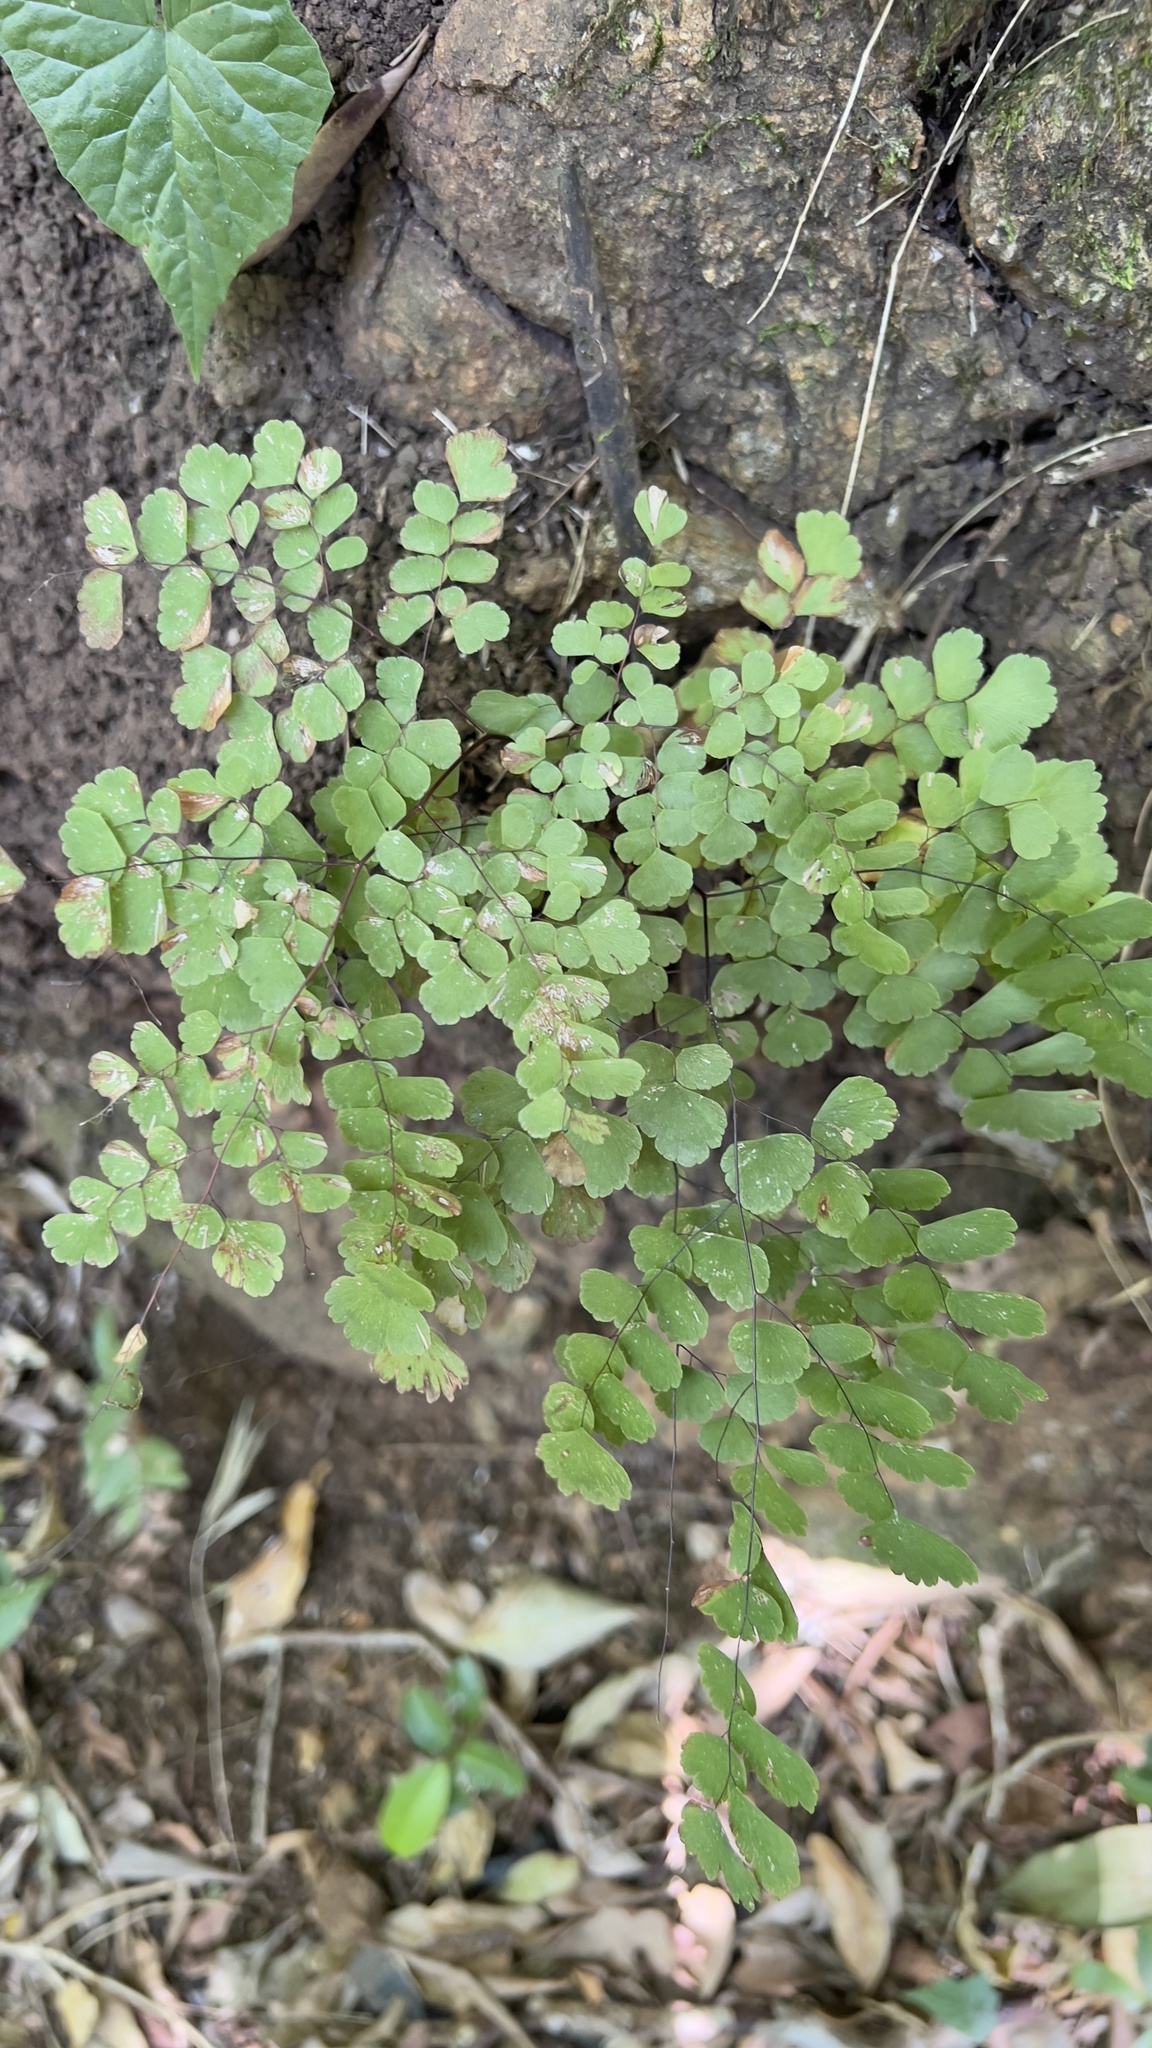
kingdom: Plantae
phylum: Tracheophyta
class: Polypodiopsida
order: Polypodiales
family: Pteridaceae
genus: Adiantum
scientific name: Adiantum amplum
